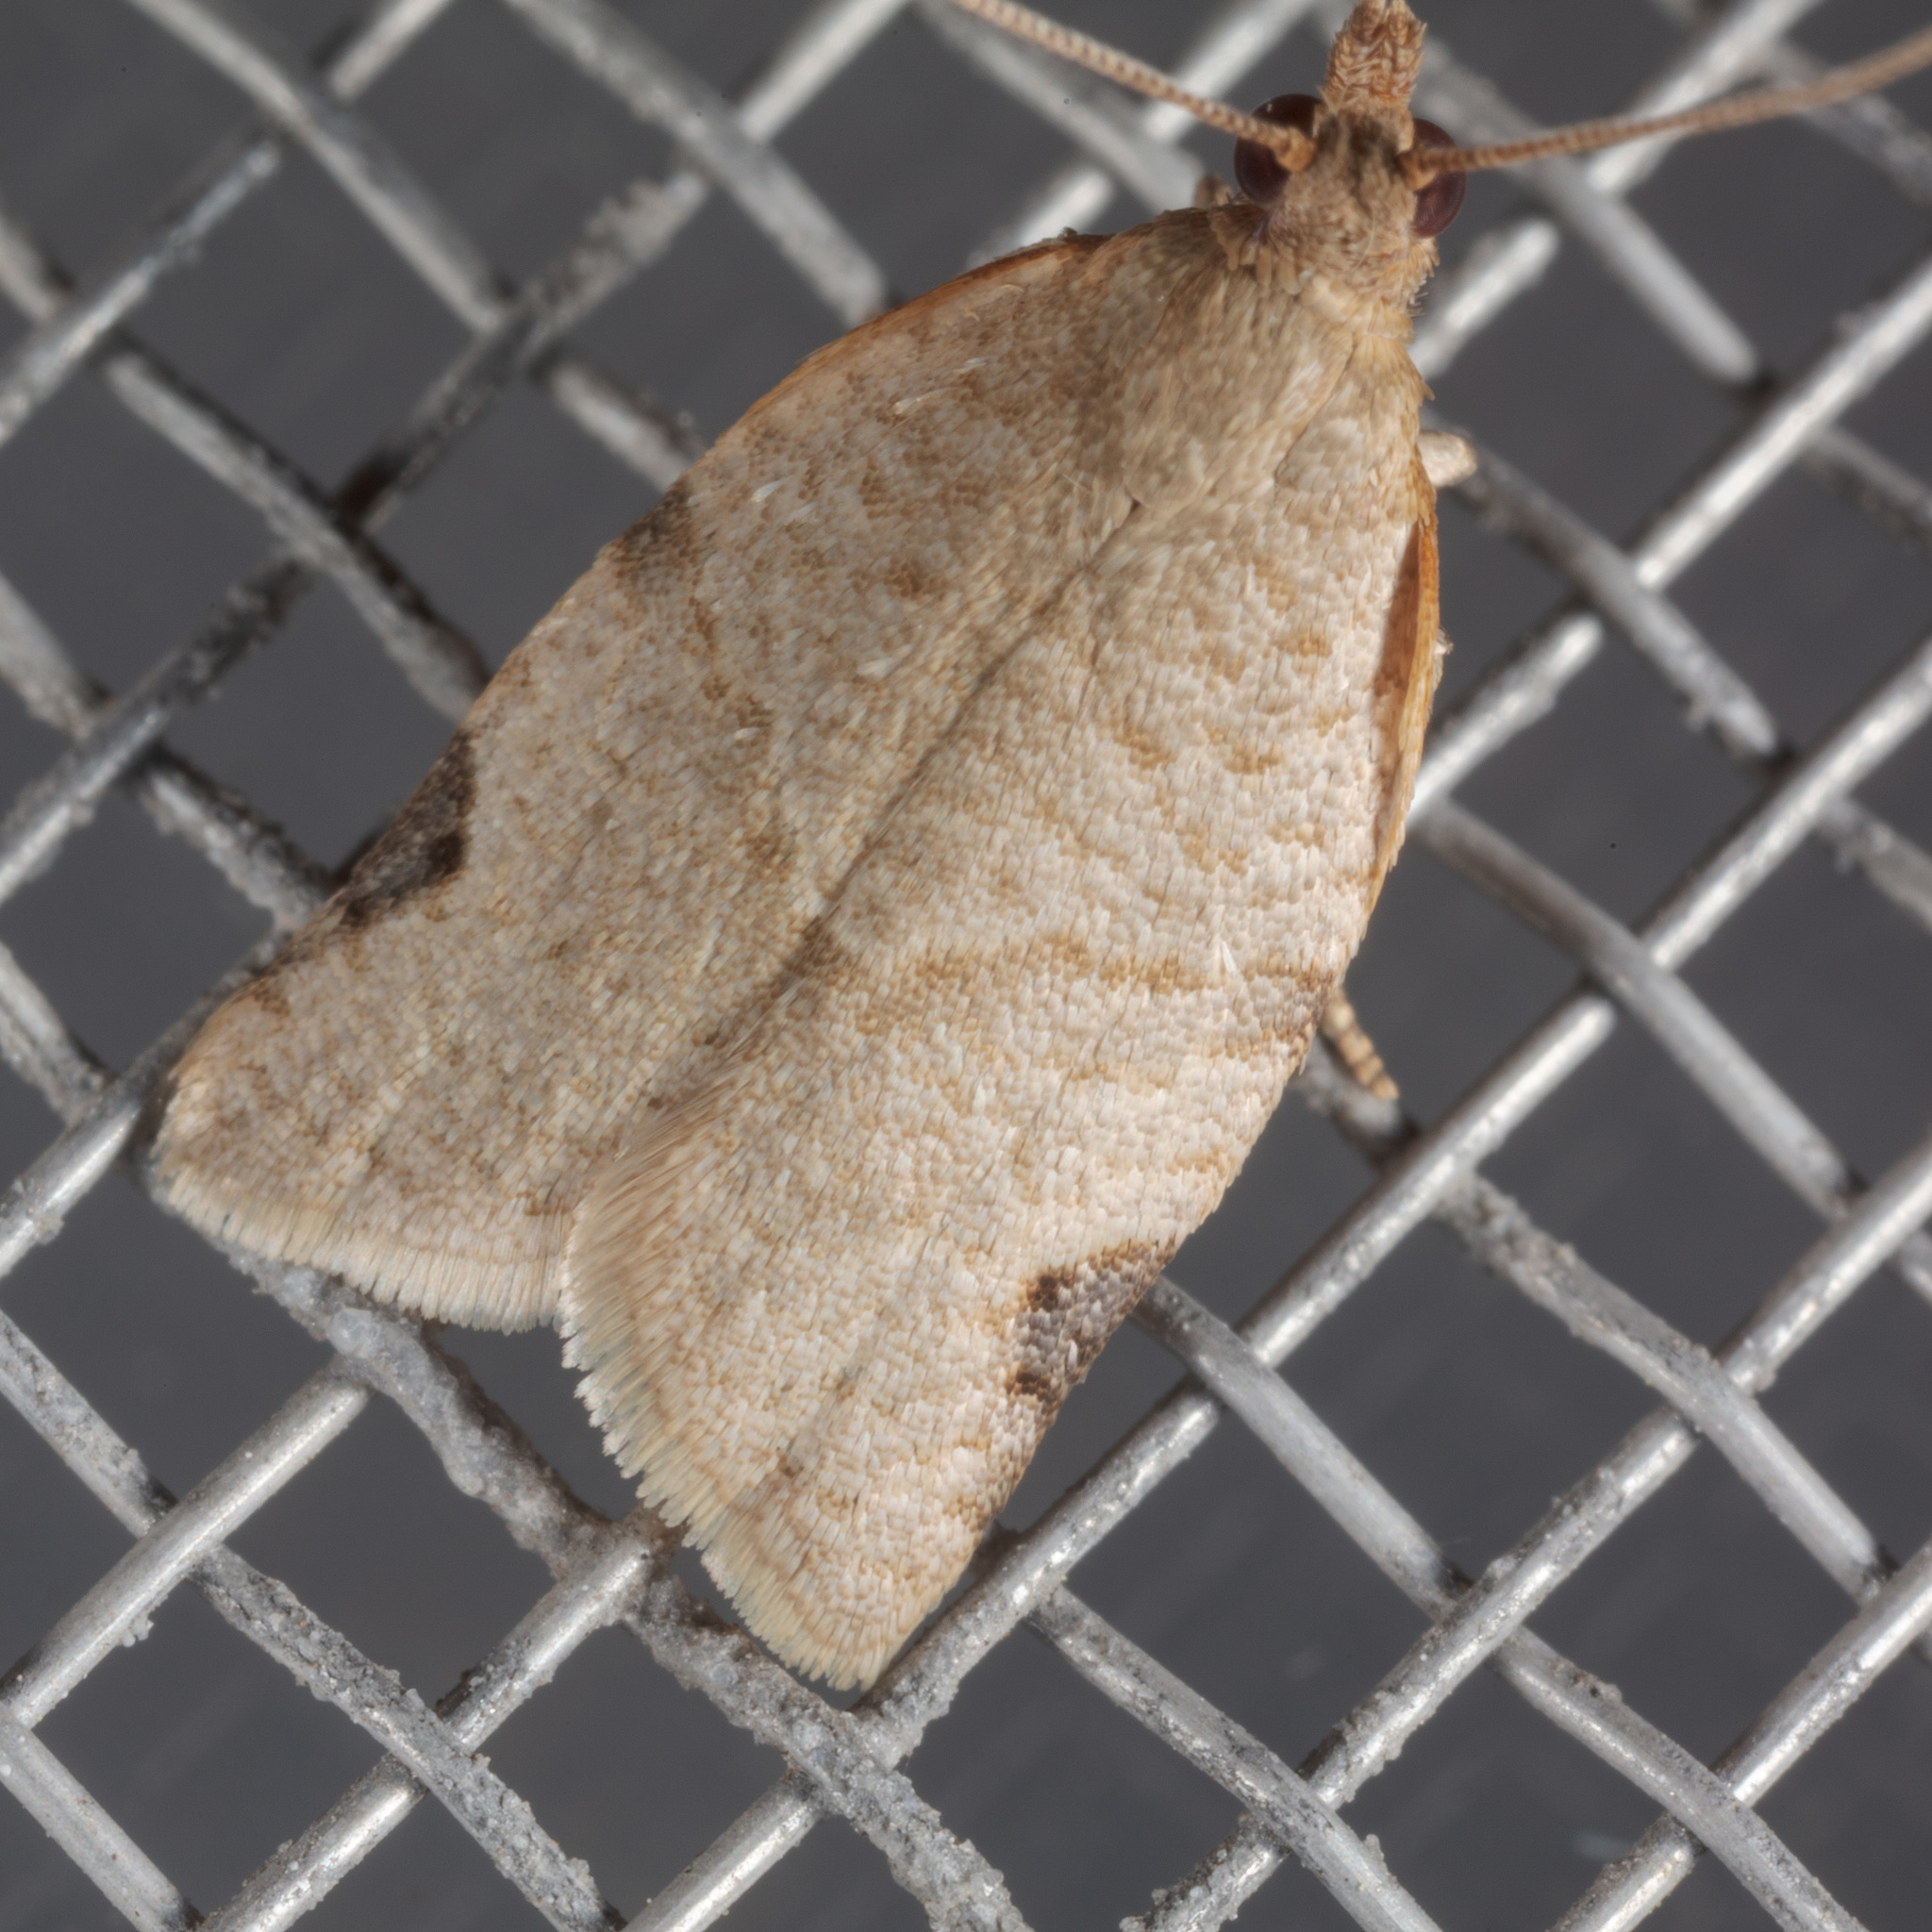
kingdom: Animalia
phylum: Arthropoda
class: Insecta
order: Lepidoptera
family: Tortricidae
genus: Clepsis
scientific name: Clepsis virescana
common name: Greenish apple moth
